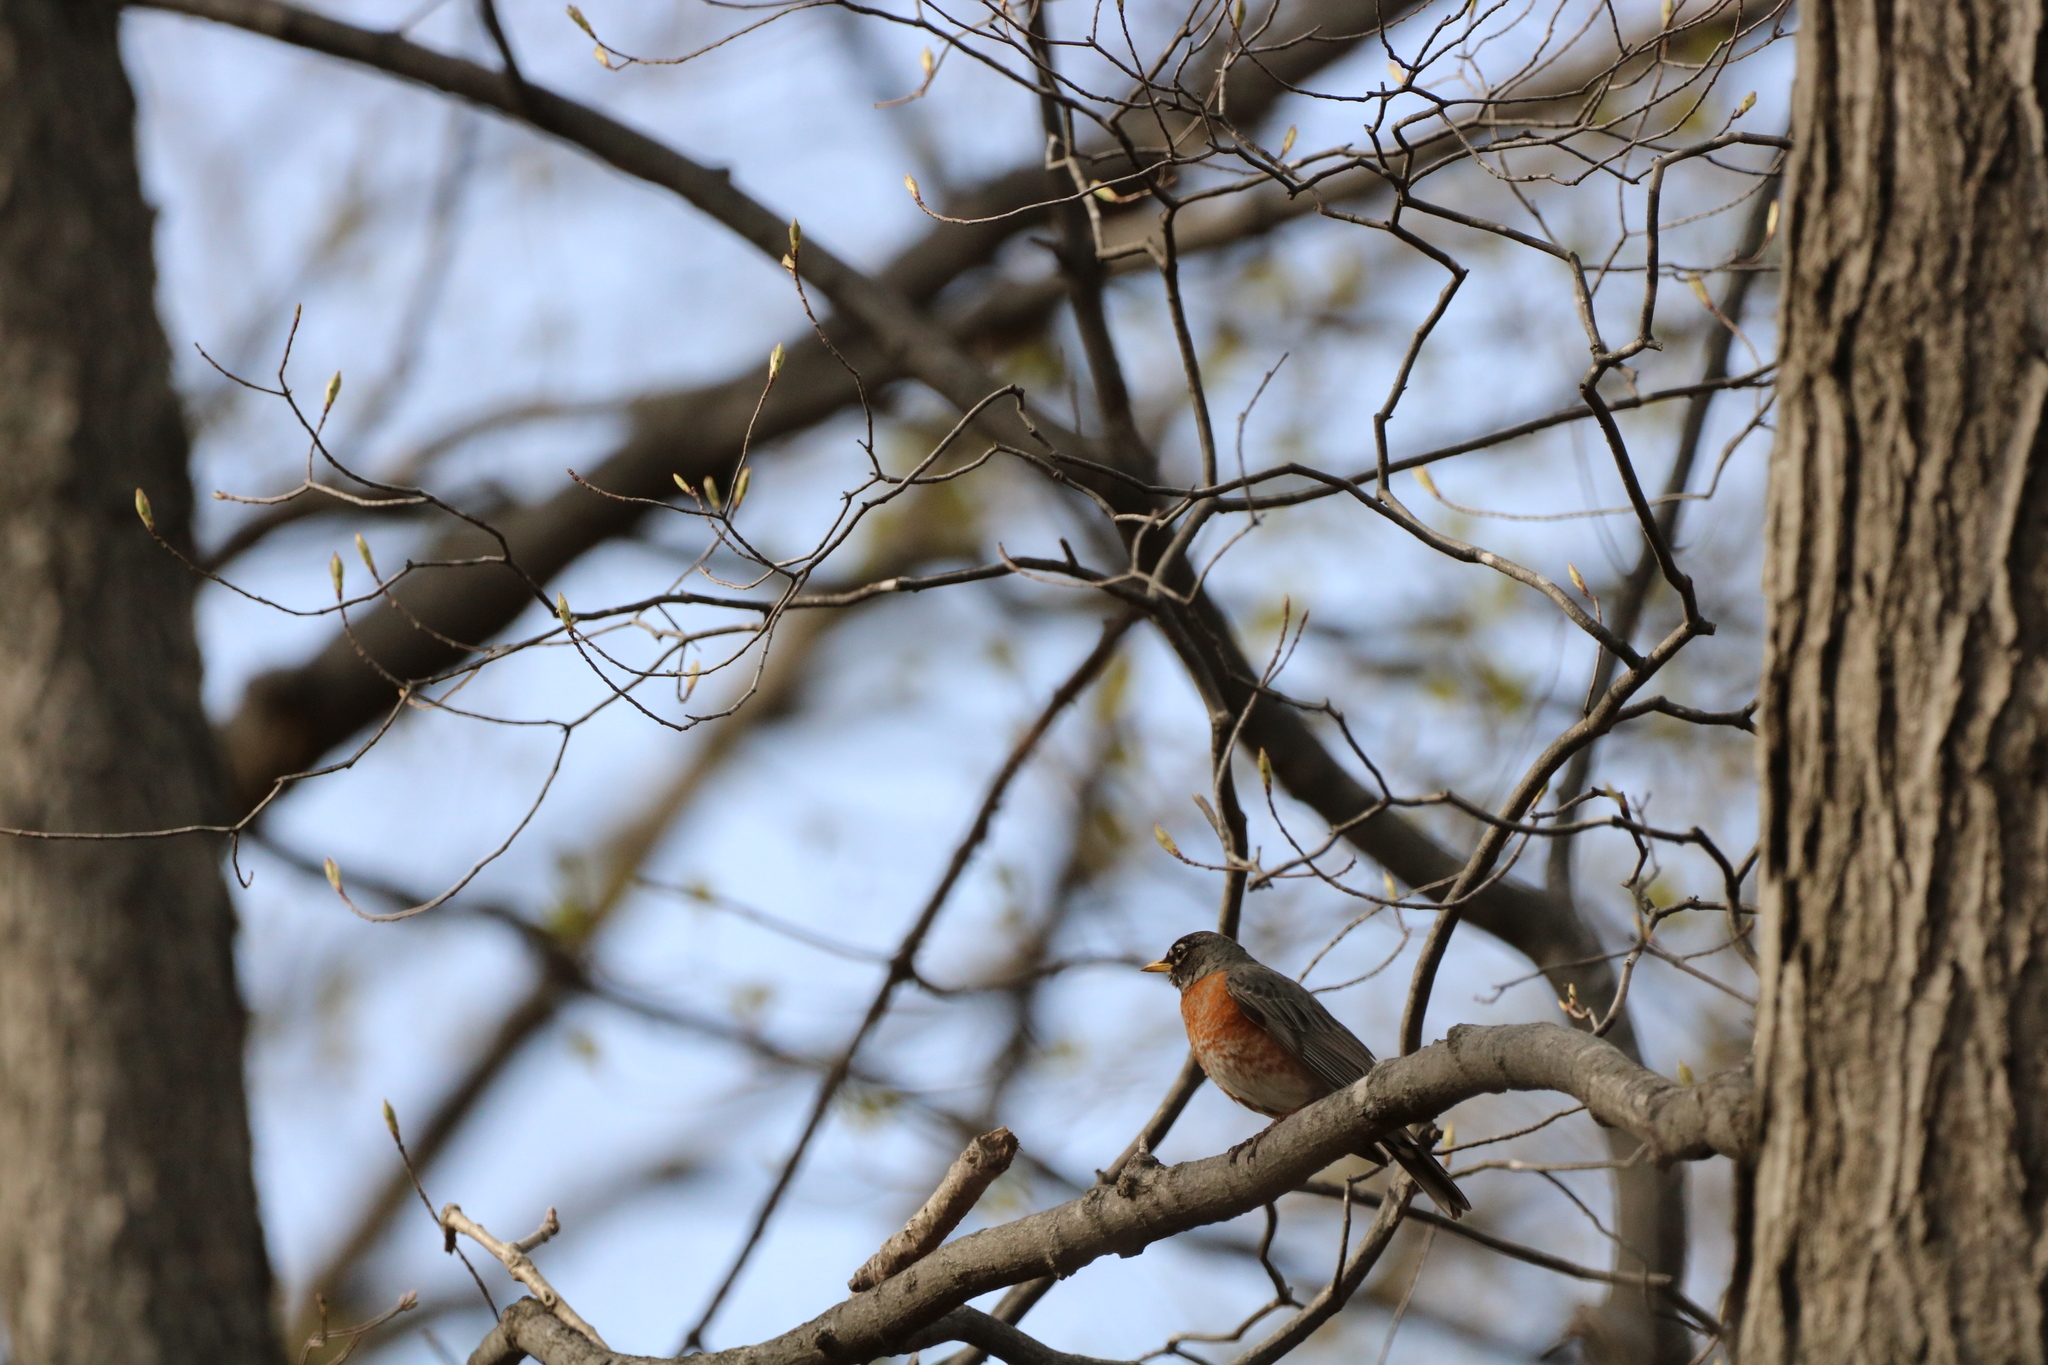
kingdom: Animalia
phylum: Chordata
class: Aves
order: Passeriformes
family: Turdidae
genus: Turdus
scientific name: Turdus migratorius
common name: American robin
